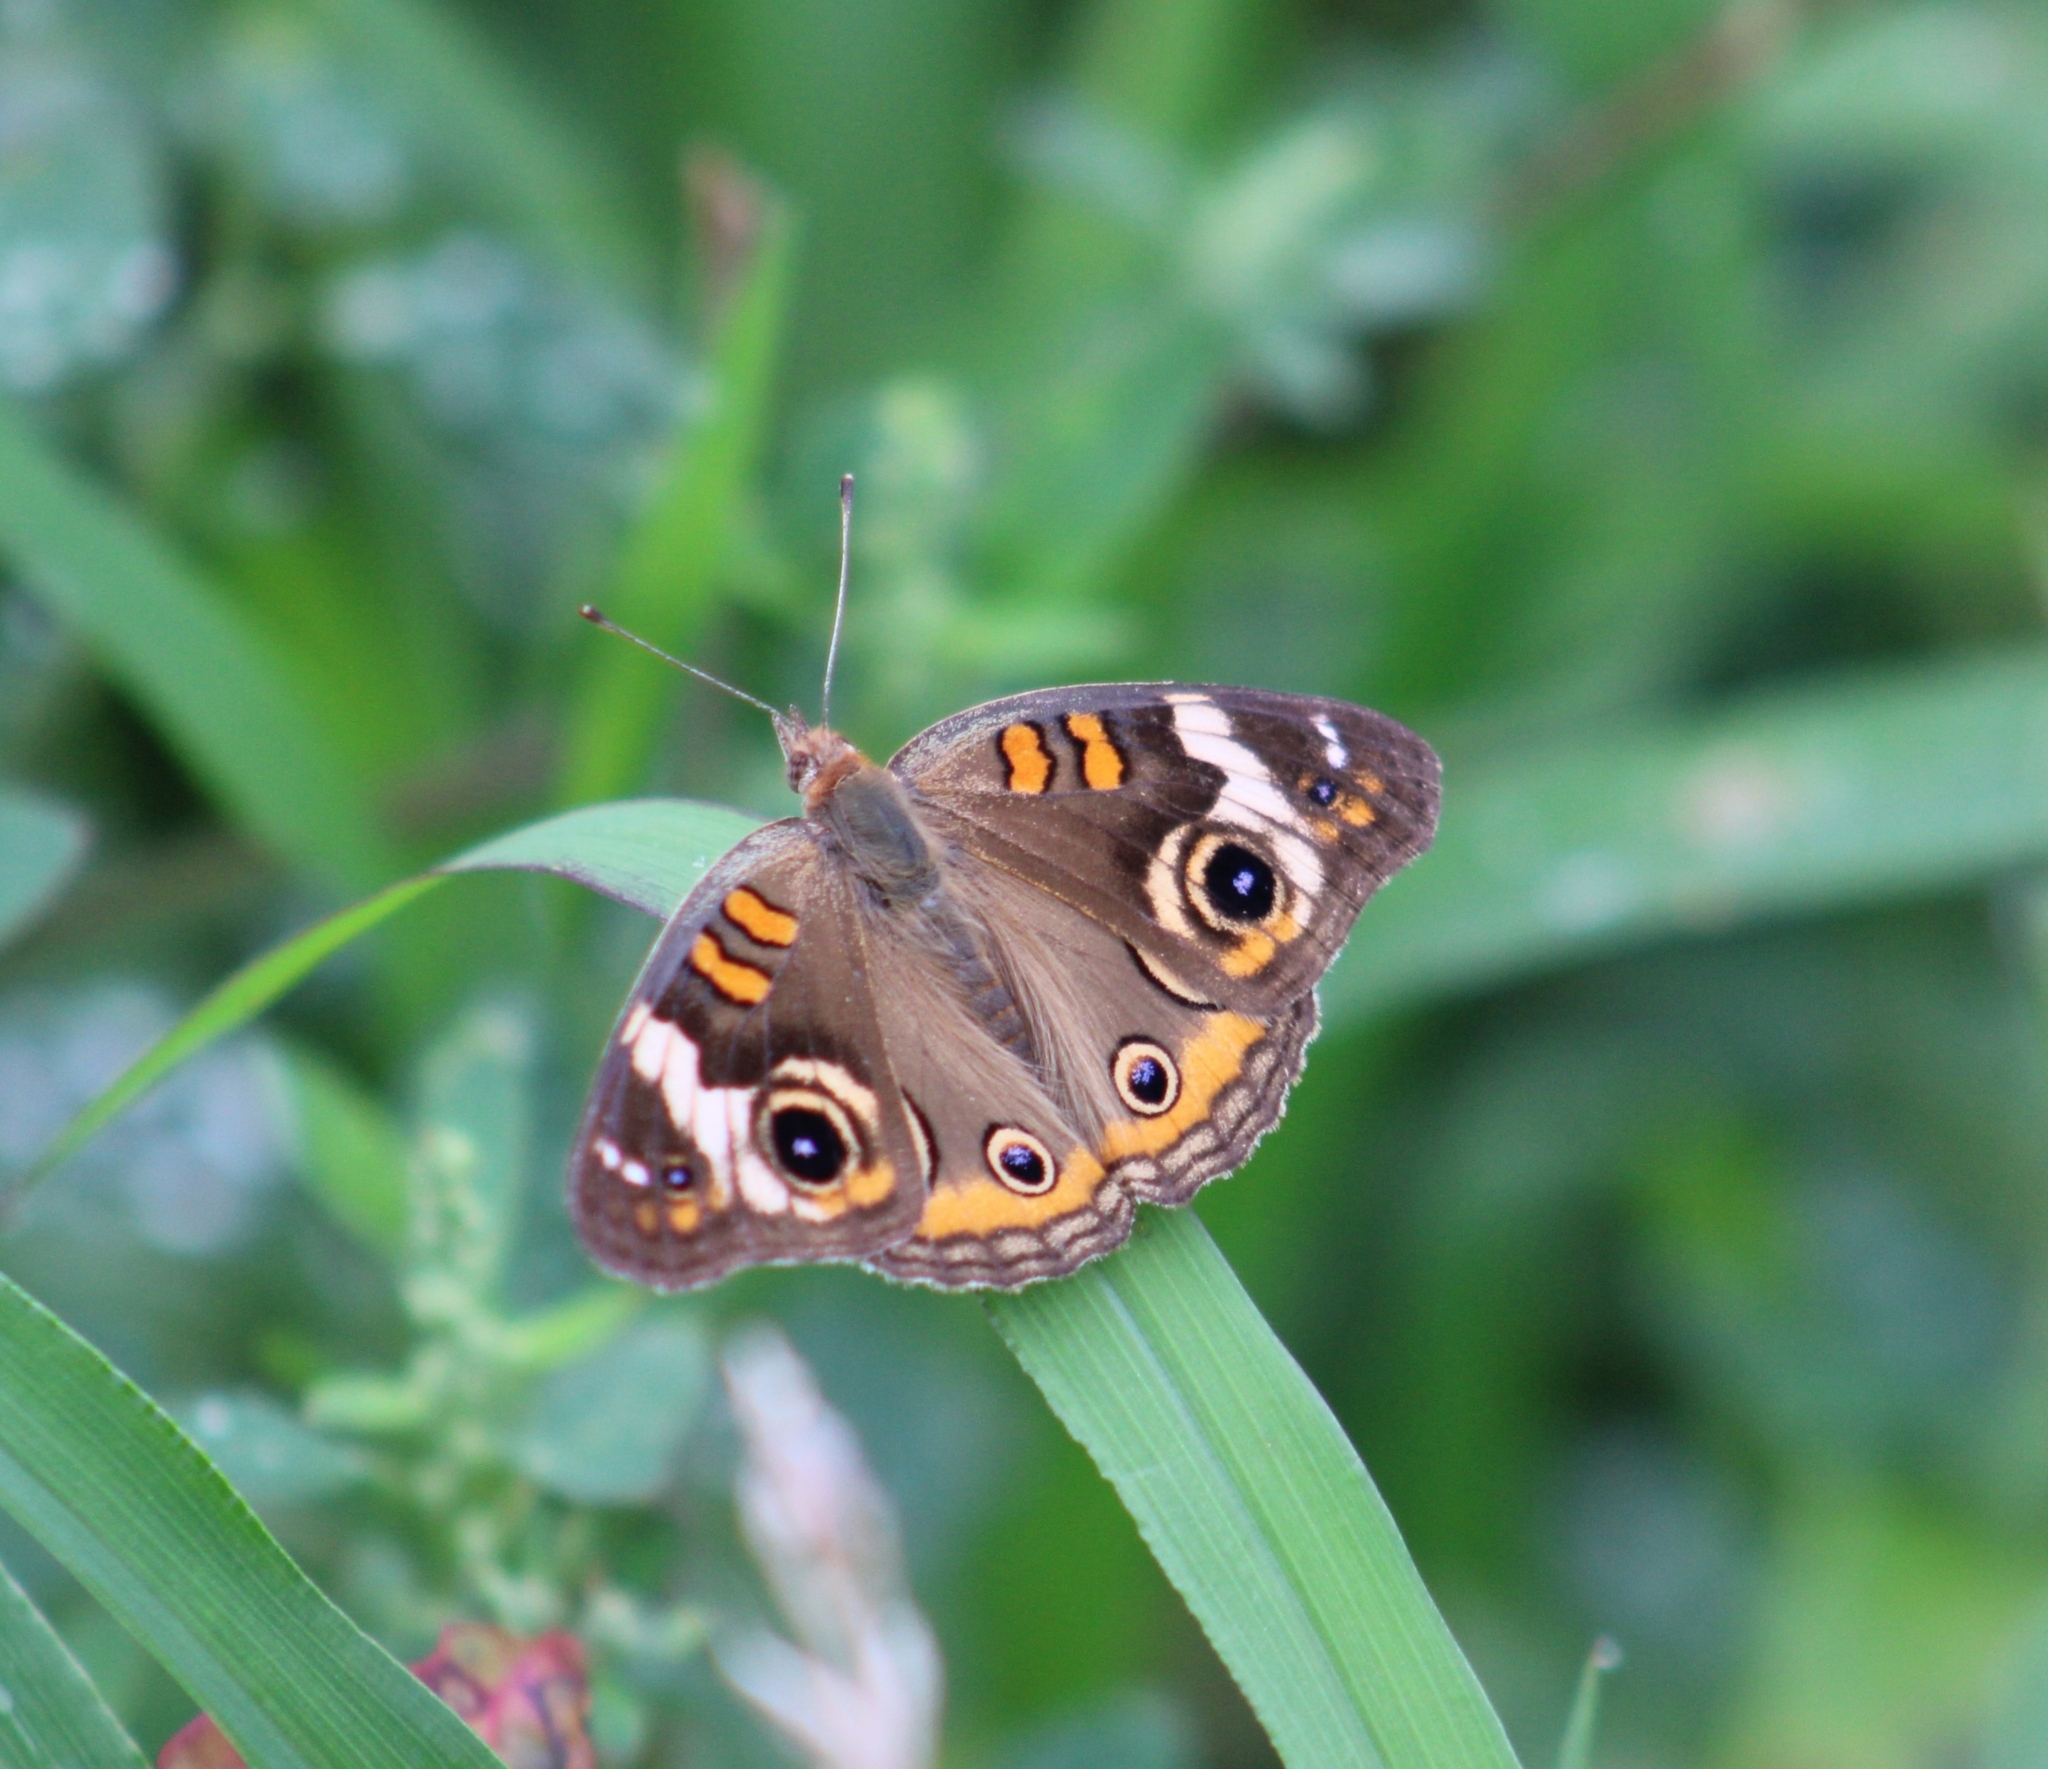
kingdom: Animalia
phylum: Arthropoda
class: Insecta
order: Lepidoptera
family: Nymphalidae
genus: Junonia
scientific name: Junonia coenia
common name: Common buckeye
